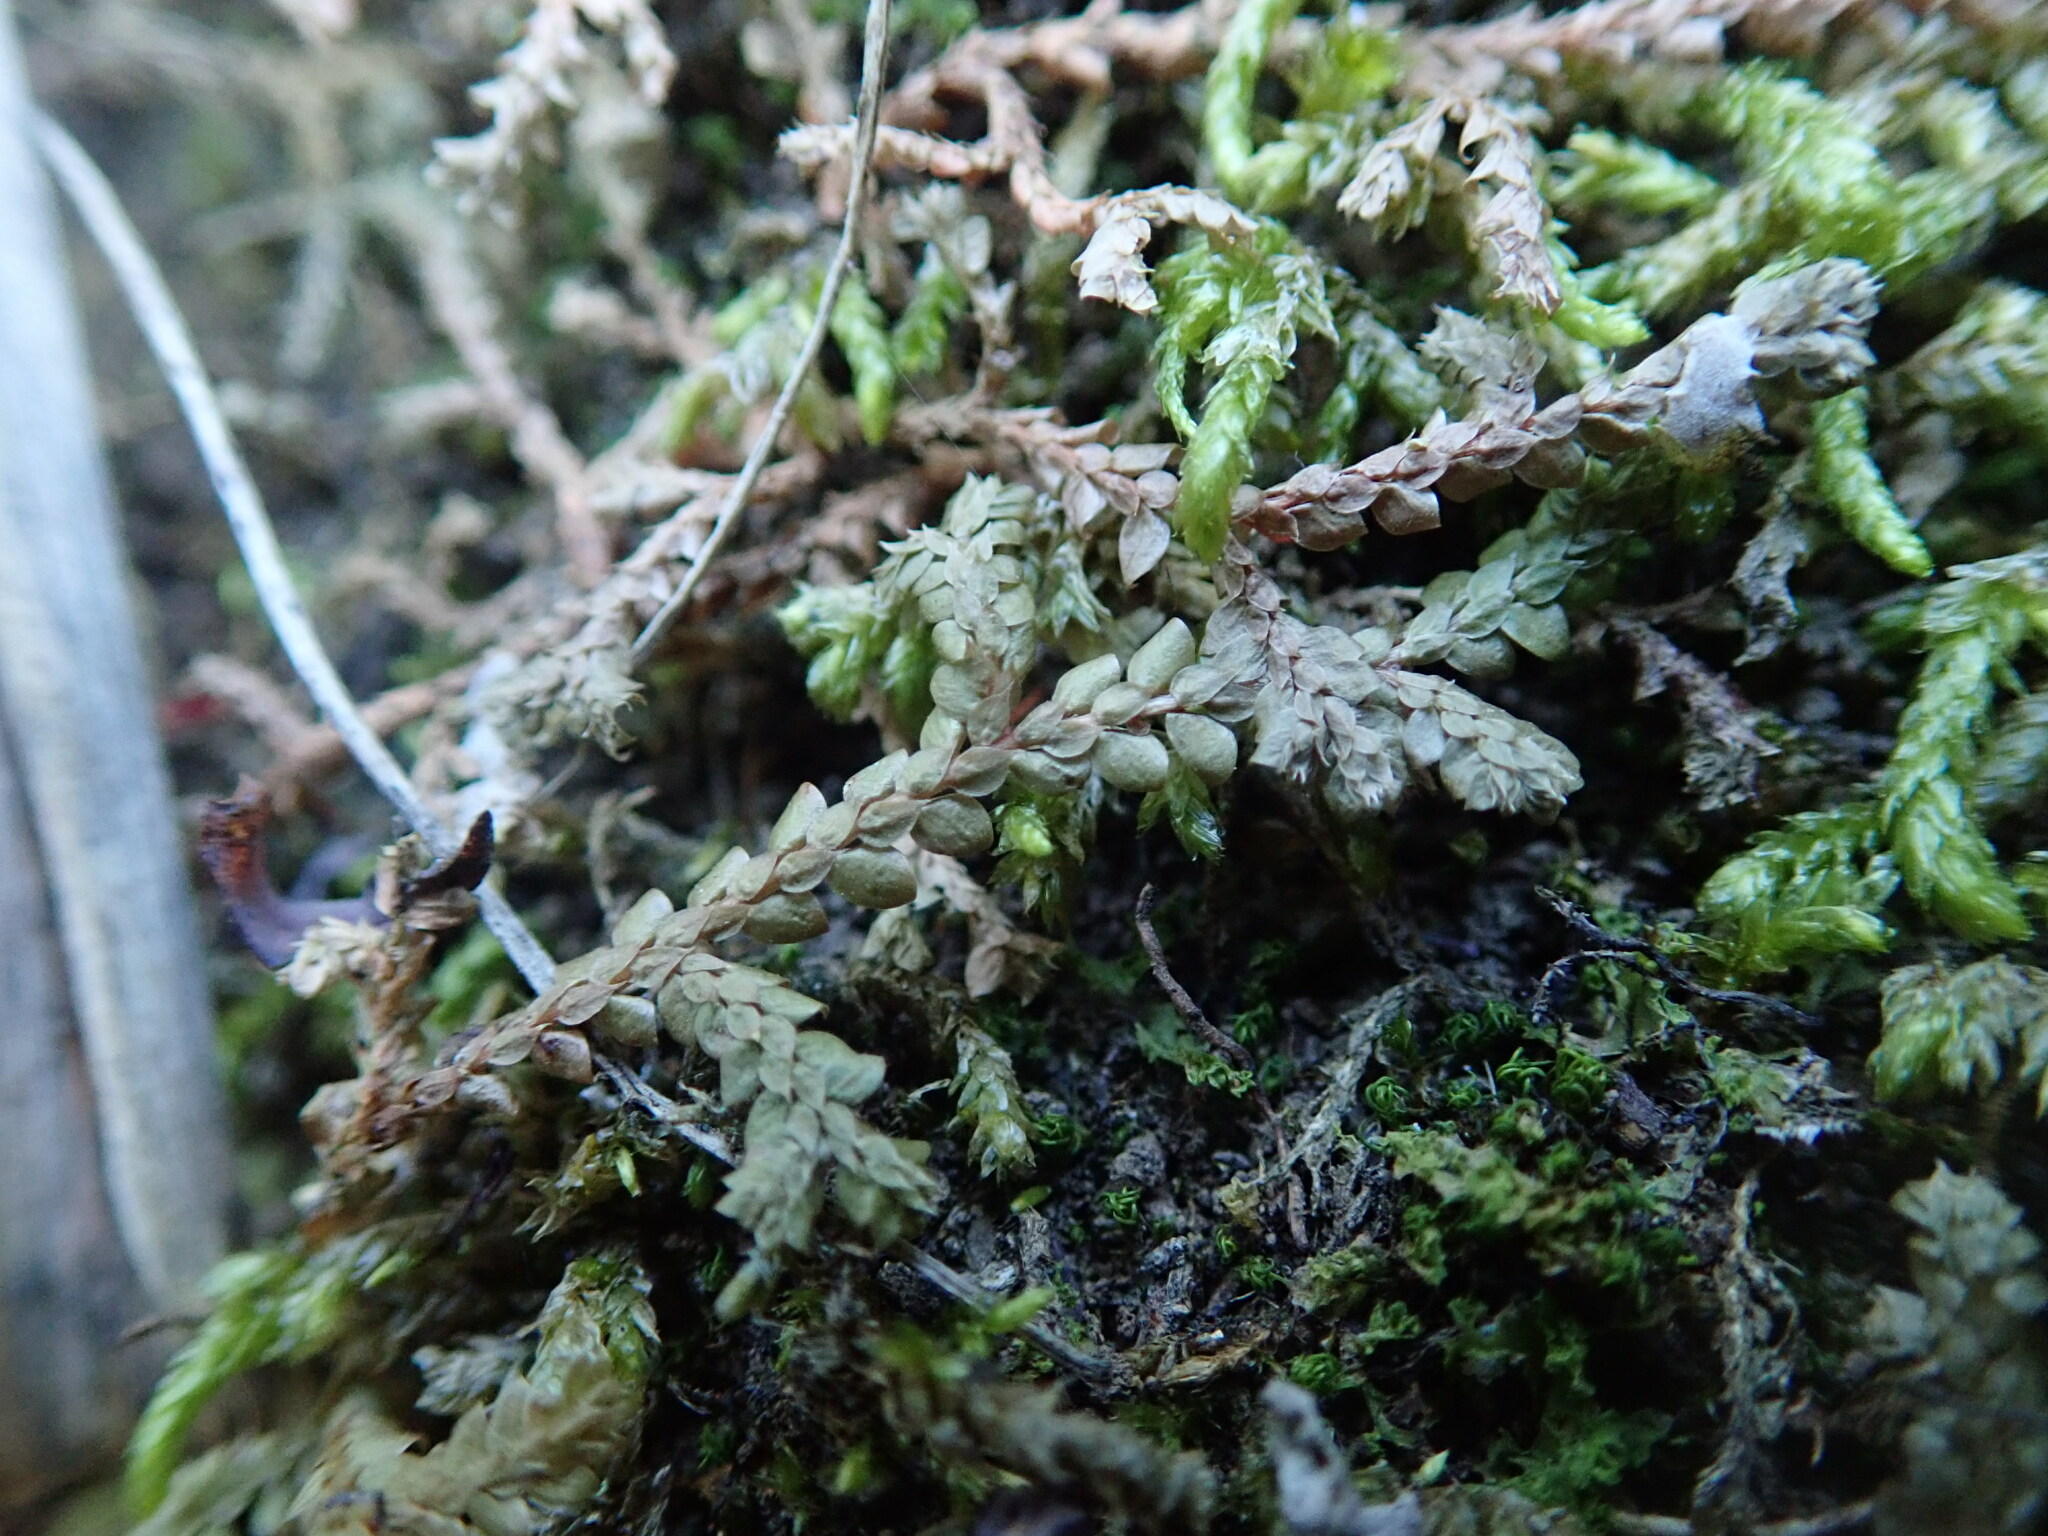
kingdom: Plantae
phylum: Tracheophyta
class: Lycopodiopsida
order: Selaginellales
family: Selaginellaceae
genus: Selaginella
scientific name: Selaginella denticulata
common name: Toothed-leaved clubmoss
